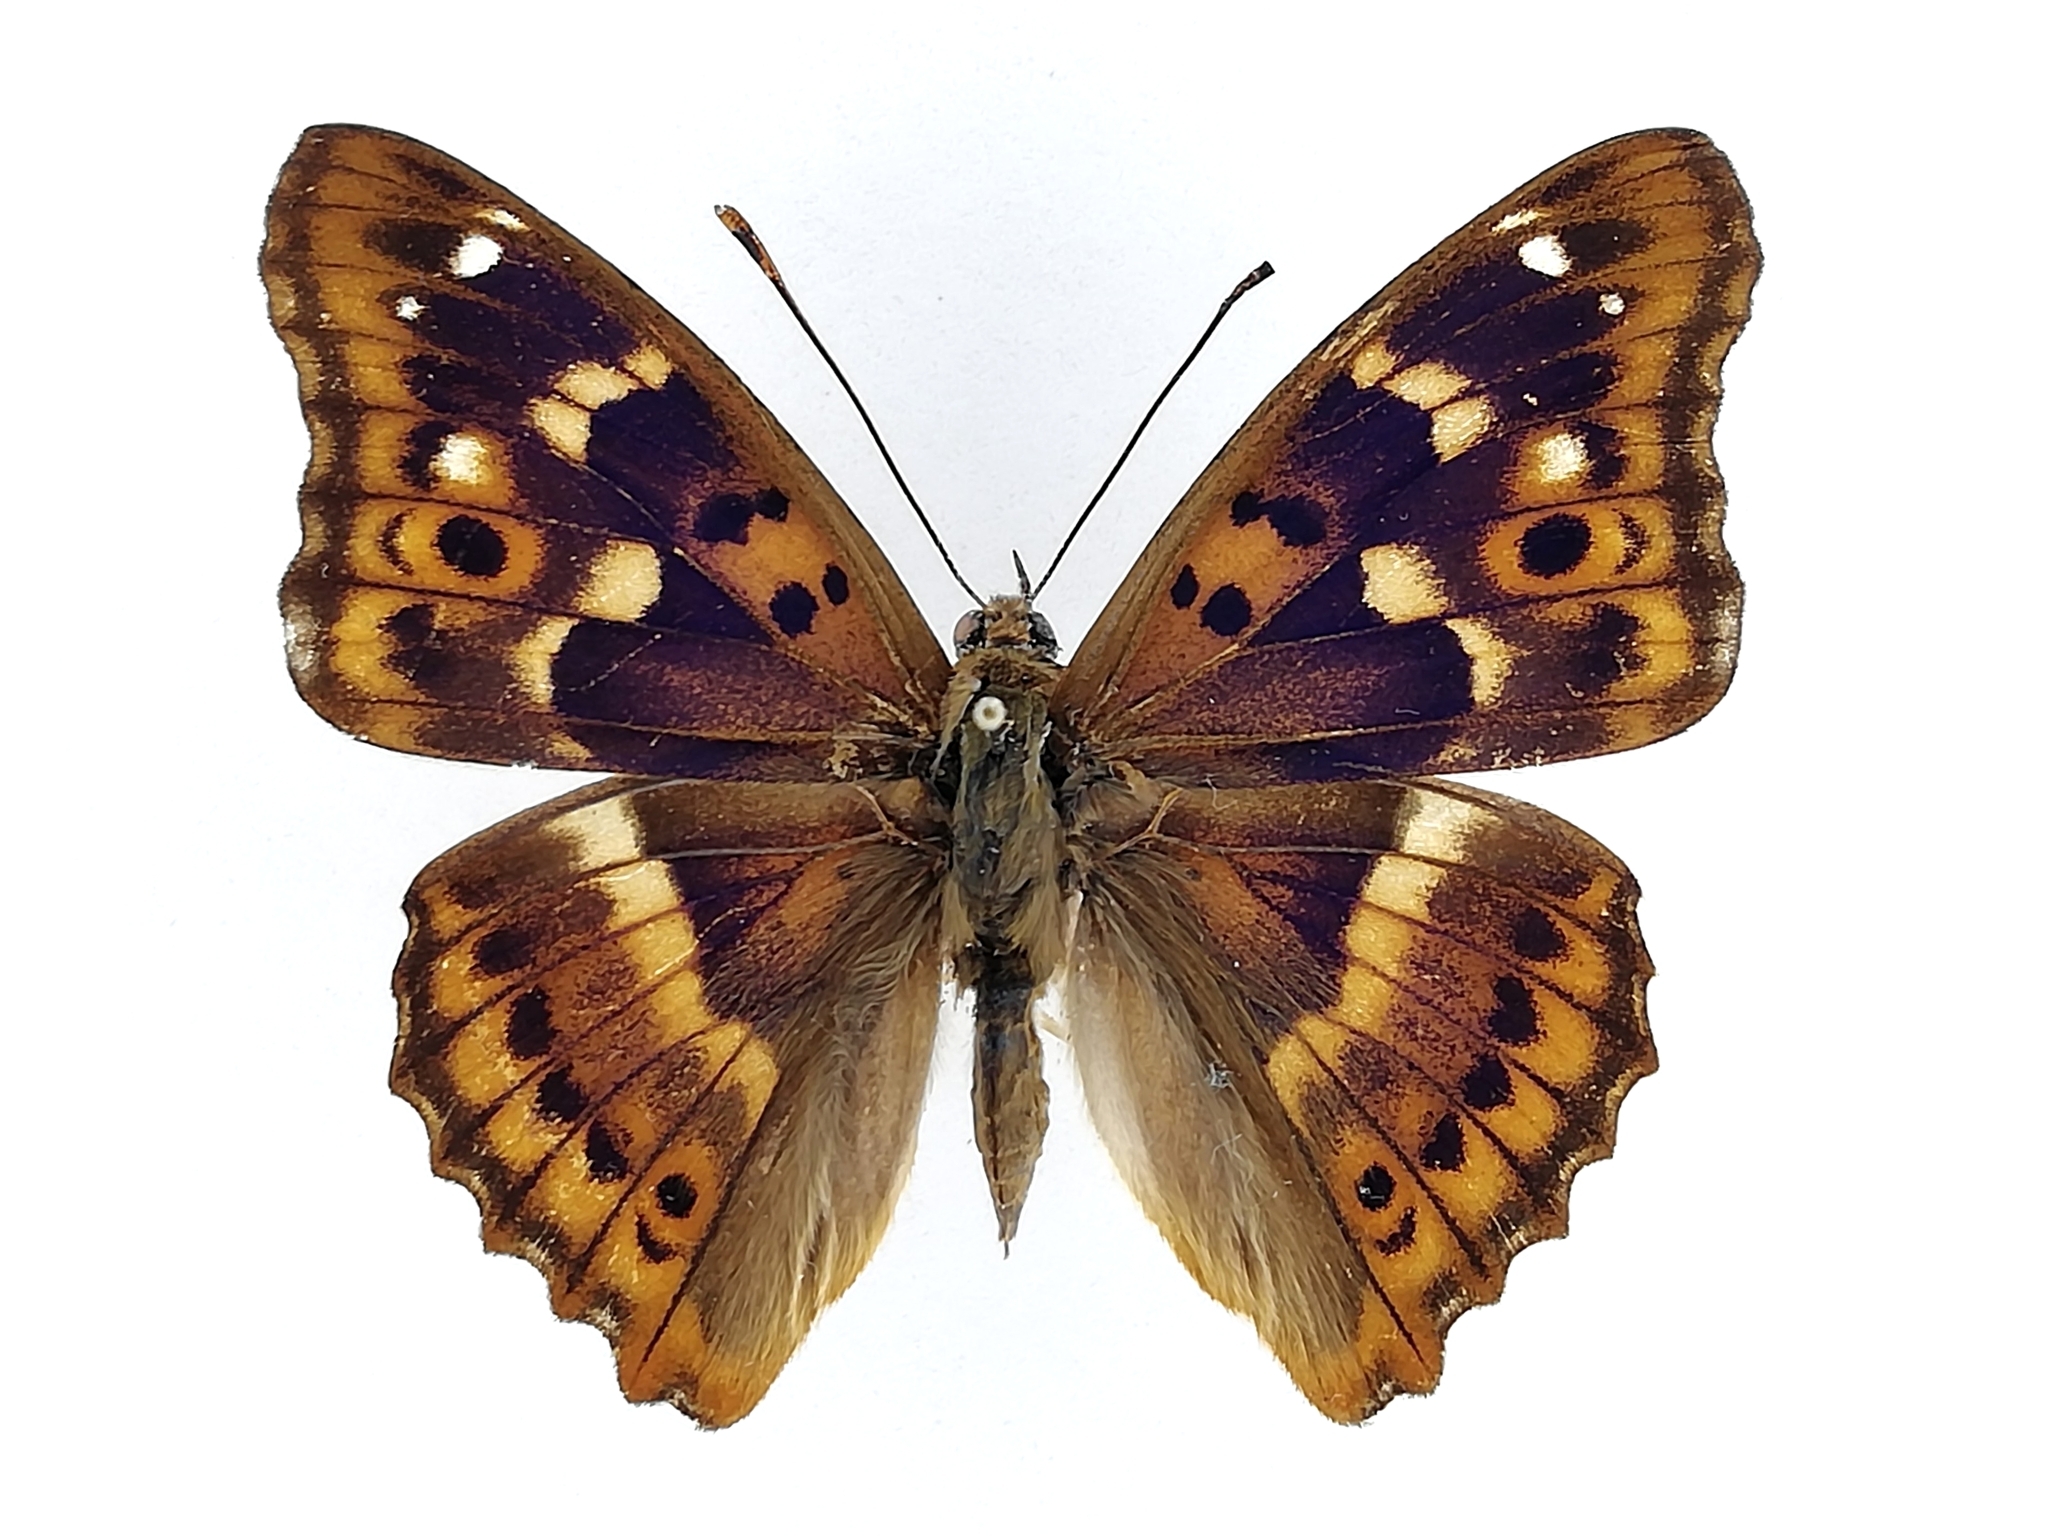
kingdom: Animalia
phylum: Arthropoda
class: Insecta
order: Lepidoptera
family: Nymphalidae
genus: Apatura
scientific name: Apatura ilia
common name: Lesser purple emperor
